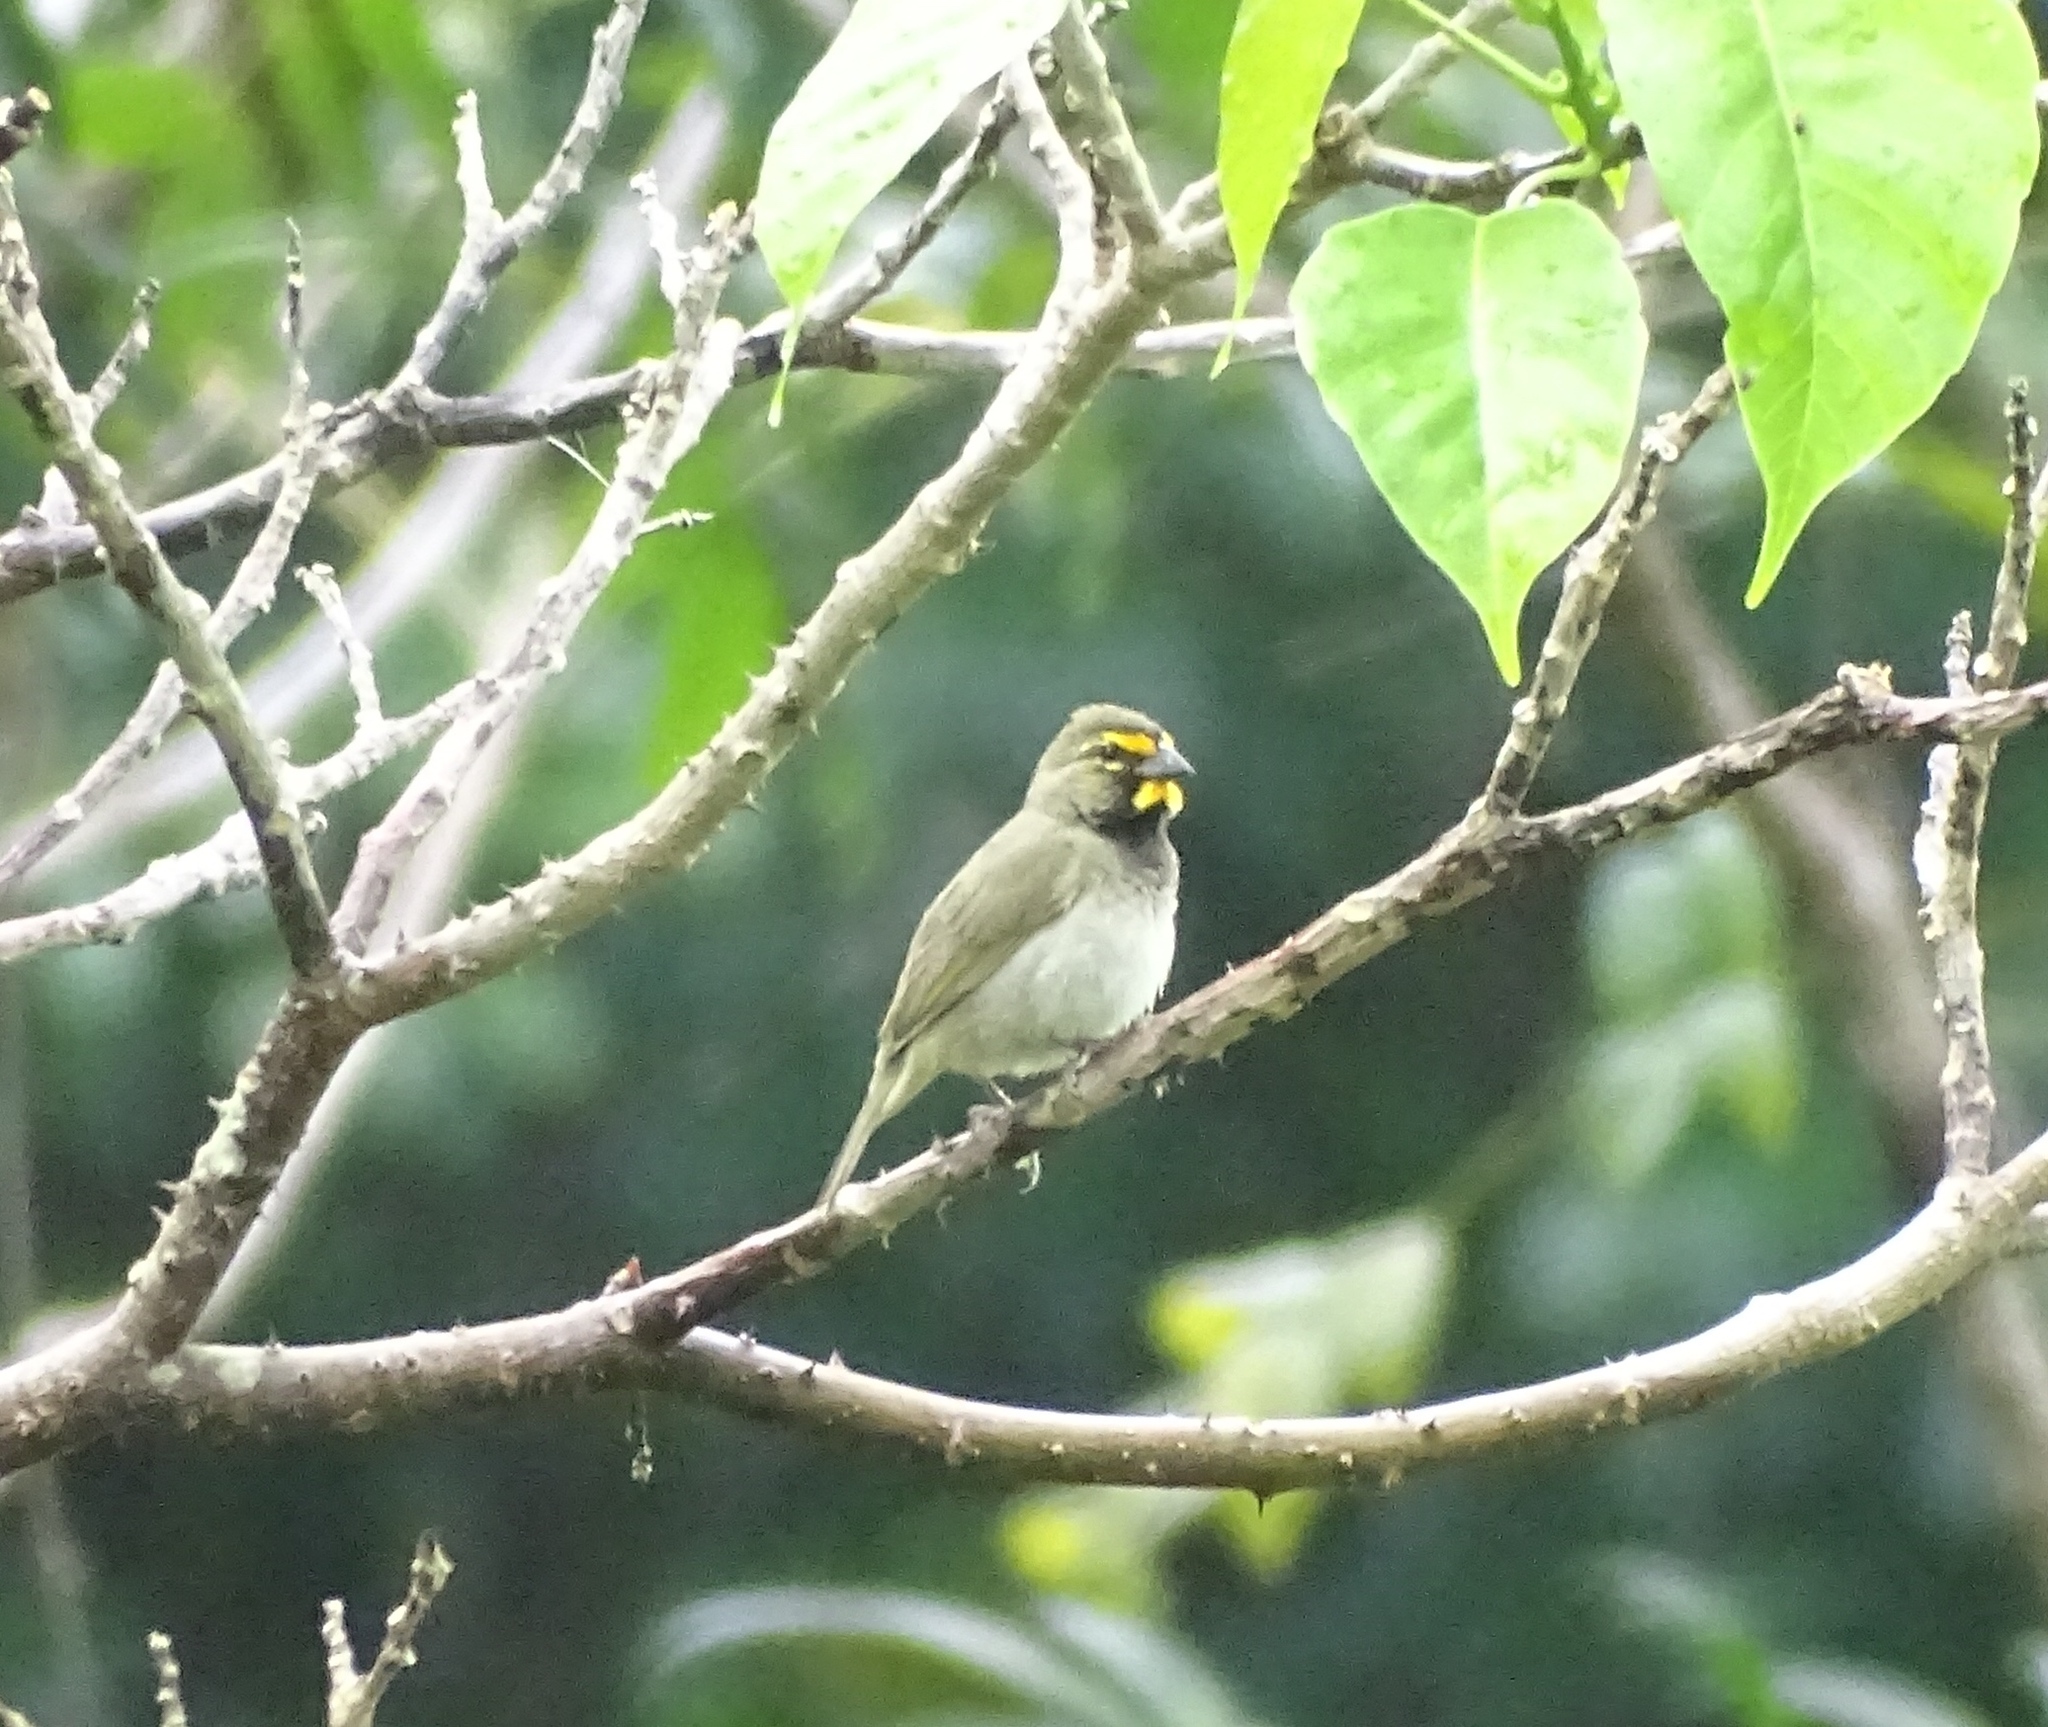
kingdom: Animalia
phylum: Chordata
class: Aves
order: Passeriformes
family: Thraupidae
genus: Tiaris
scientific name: Tiaris olivaceus
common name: Yellow-faced grassquit
